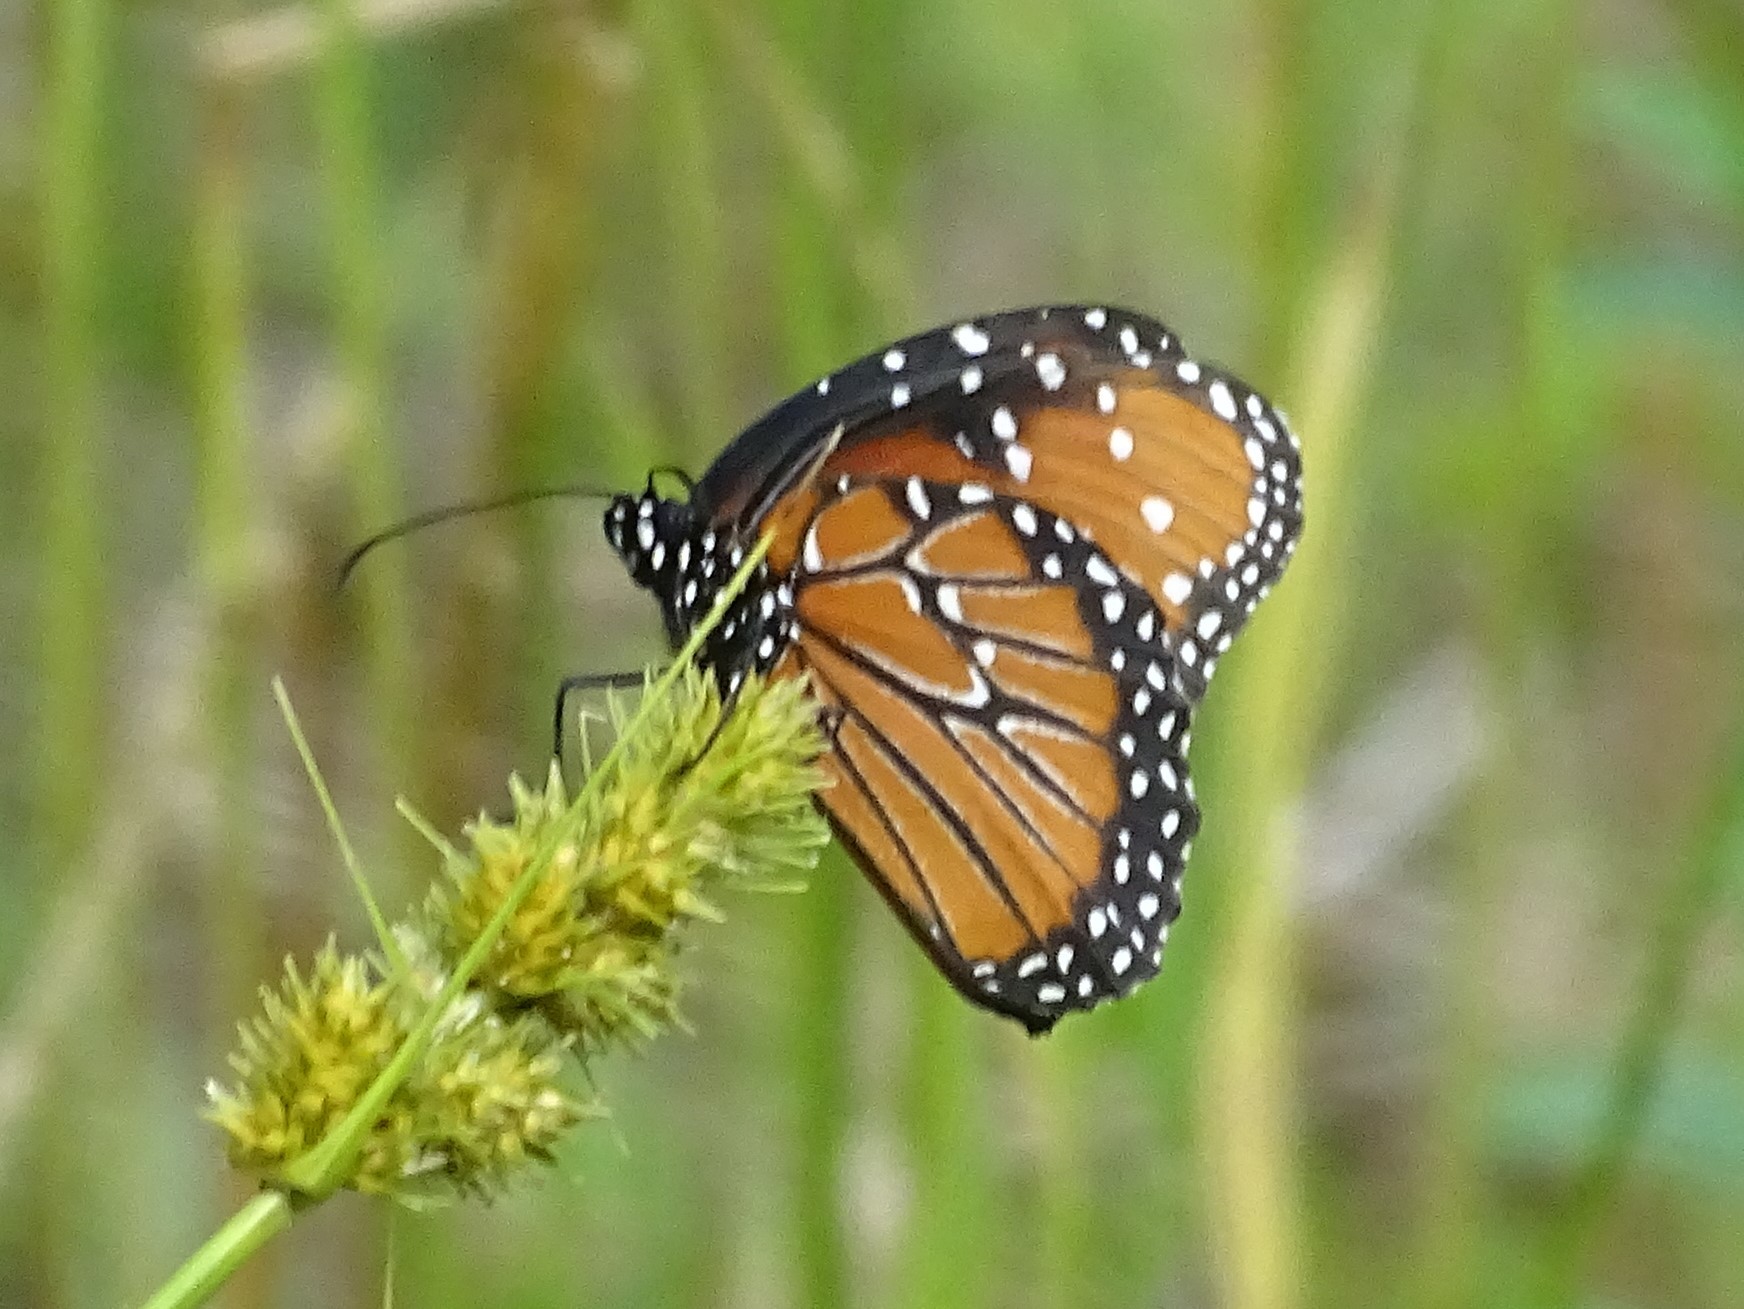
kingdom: Animalia
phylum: Arthropoda
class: Insecta
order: Lepidoptera
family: Nymphalidae
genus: Danaus
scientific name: Danaus gilippus
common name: Queen
